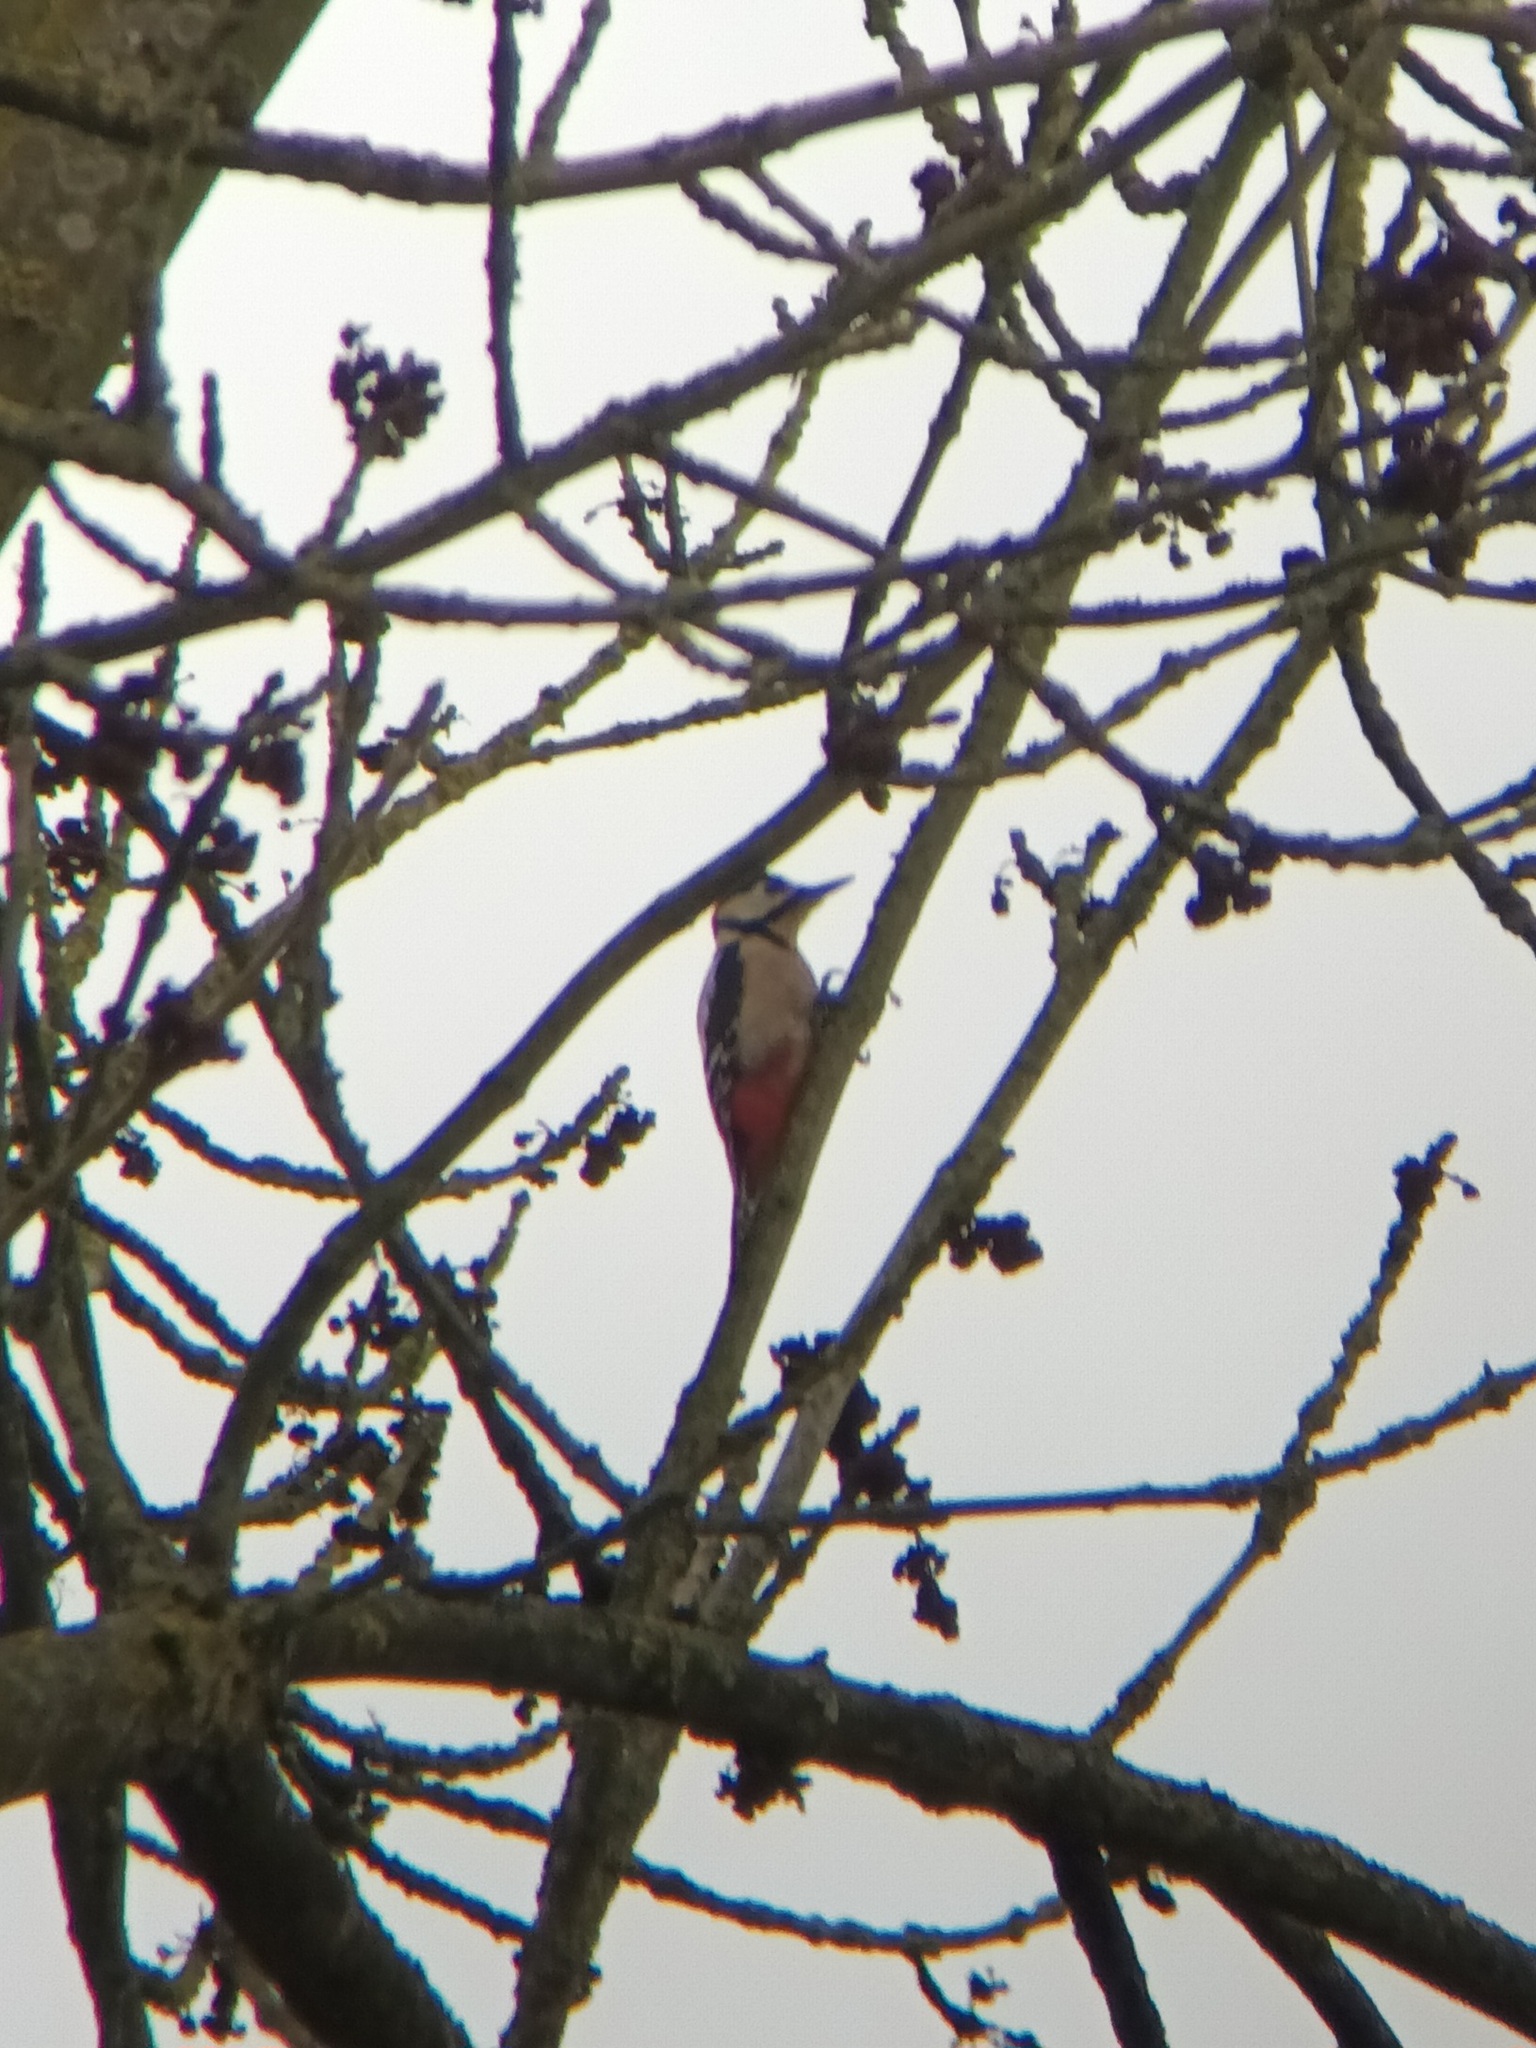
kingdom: Animalia
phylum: Chordata
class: Aves
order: Piciformes
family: Picidae
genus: Dendrocopos
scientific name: Dendrocopos major
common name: Great spotted woodpecker
